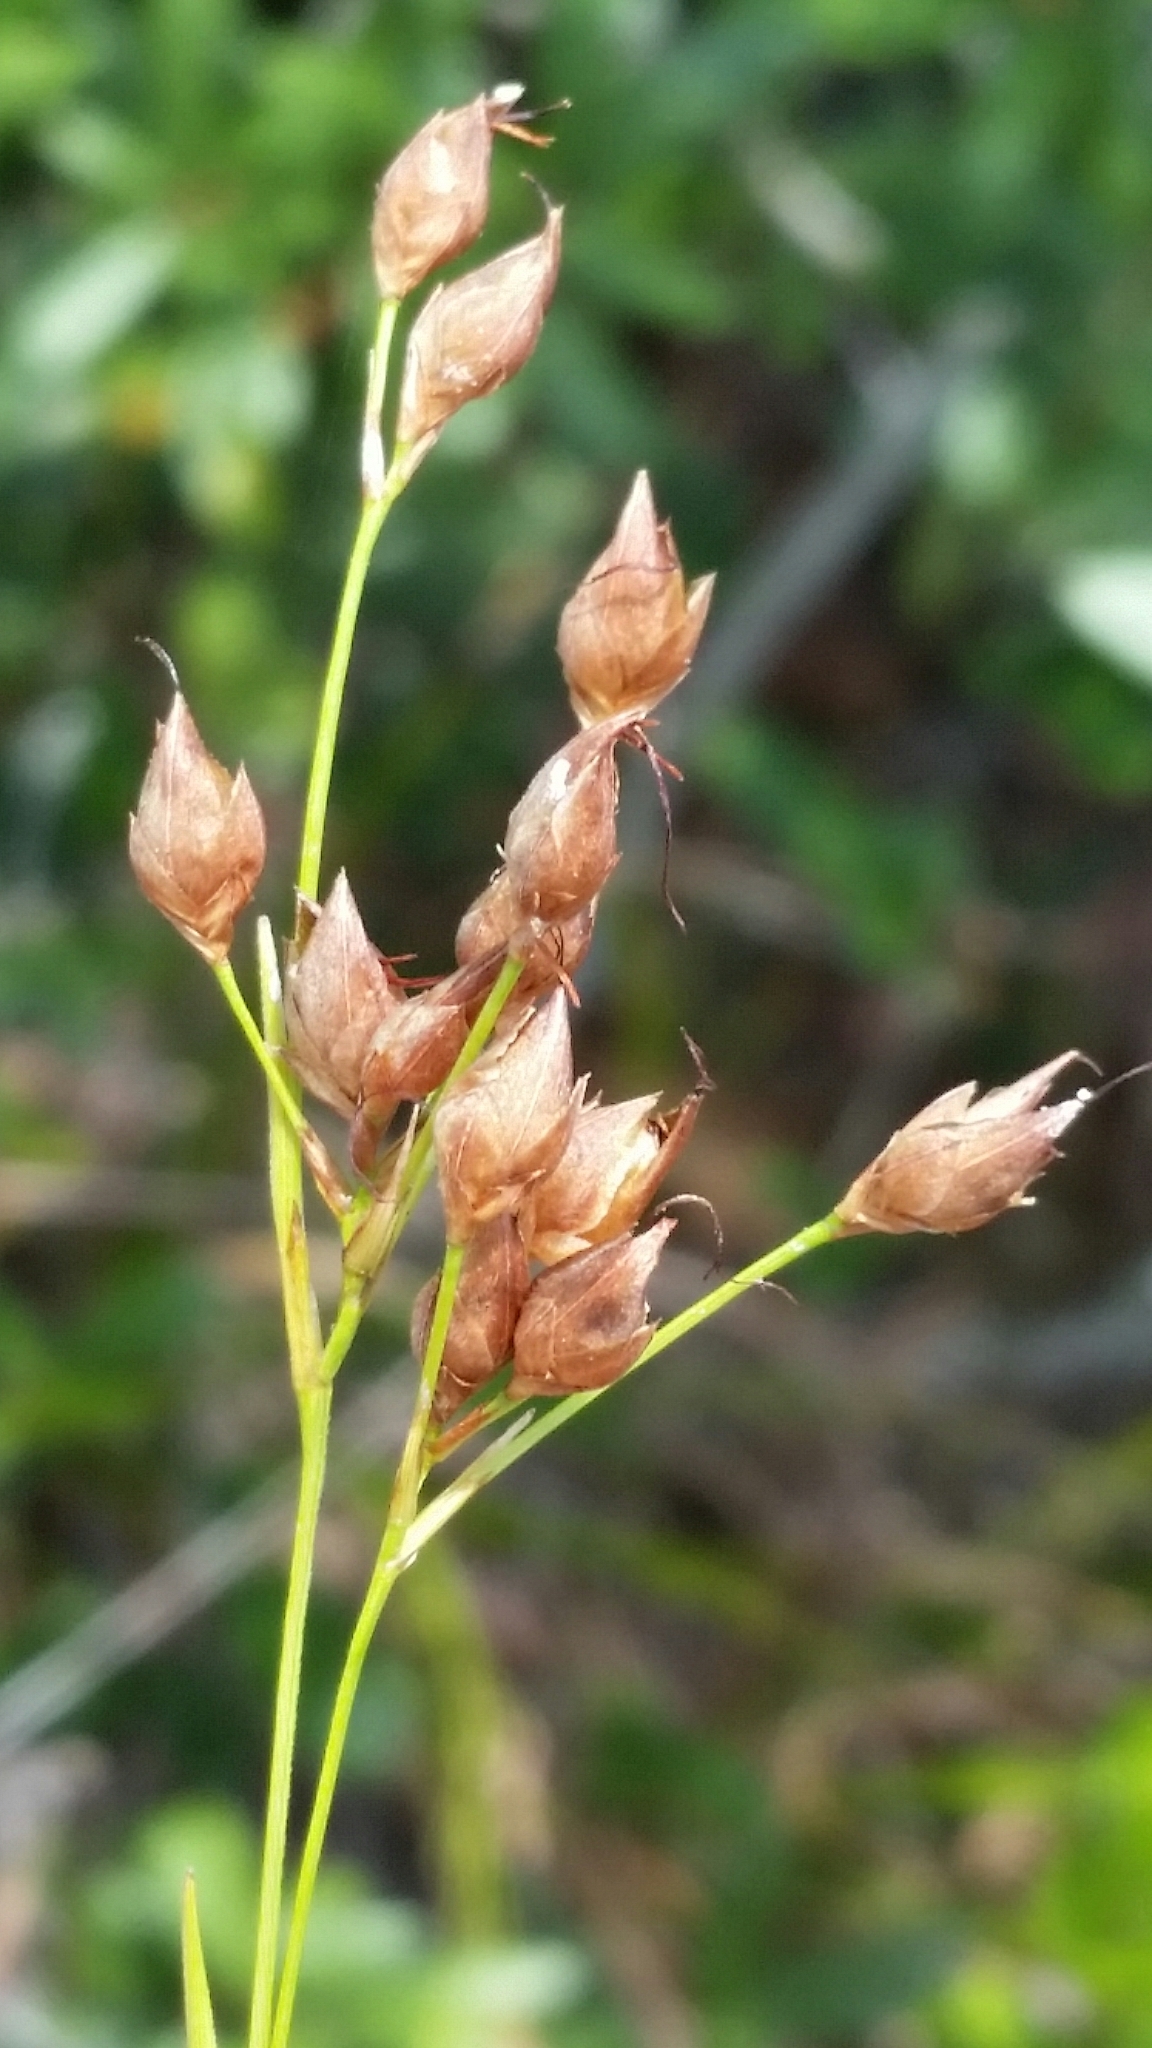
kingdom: Plantae
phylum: Tracheophyta
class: Liliopsida
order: Poales
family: Cyperaceae
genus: Rhynchospora
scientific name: Rhynchospora megalocarpa
